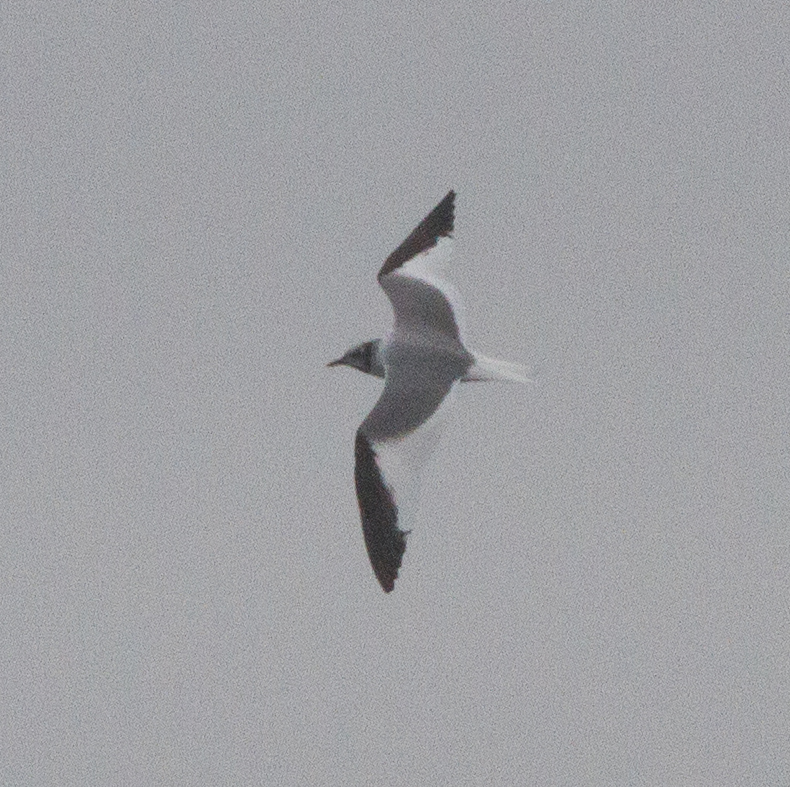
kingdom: Animalia
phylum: Chordata
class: Aves
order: Charadriiformes
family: Laridae
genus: Xema
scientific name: Xema sabini
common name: Sabine's gull
